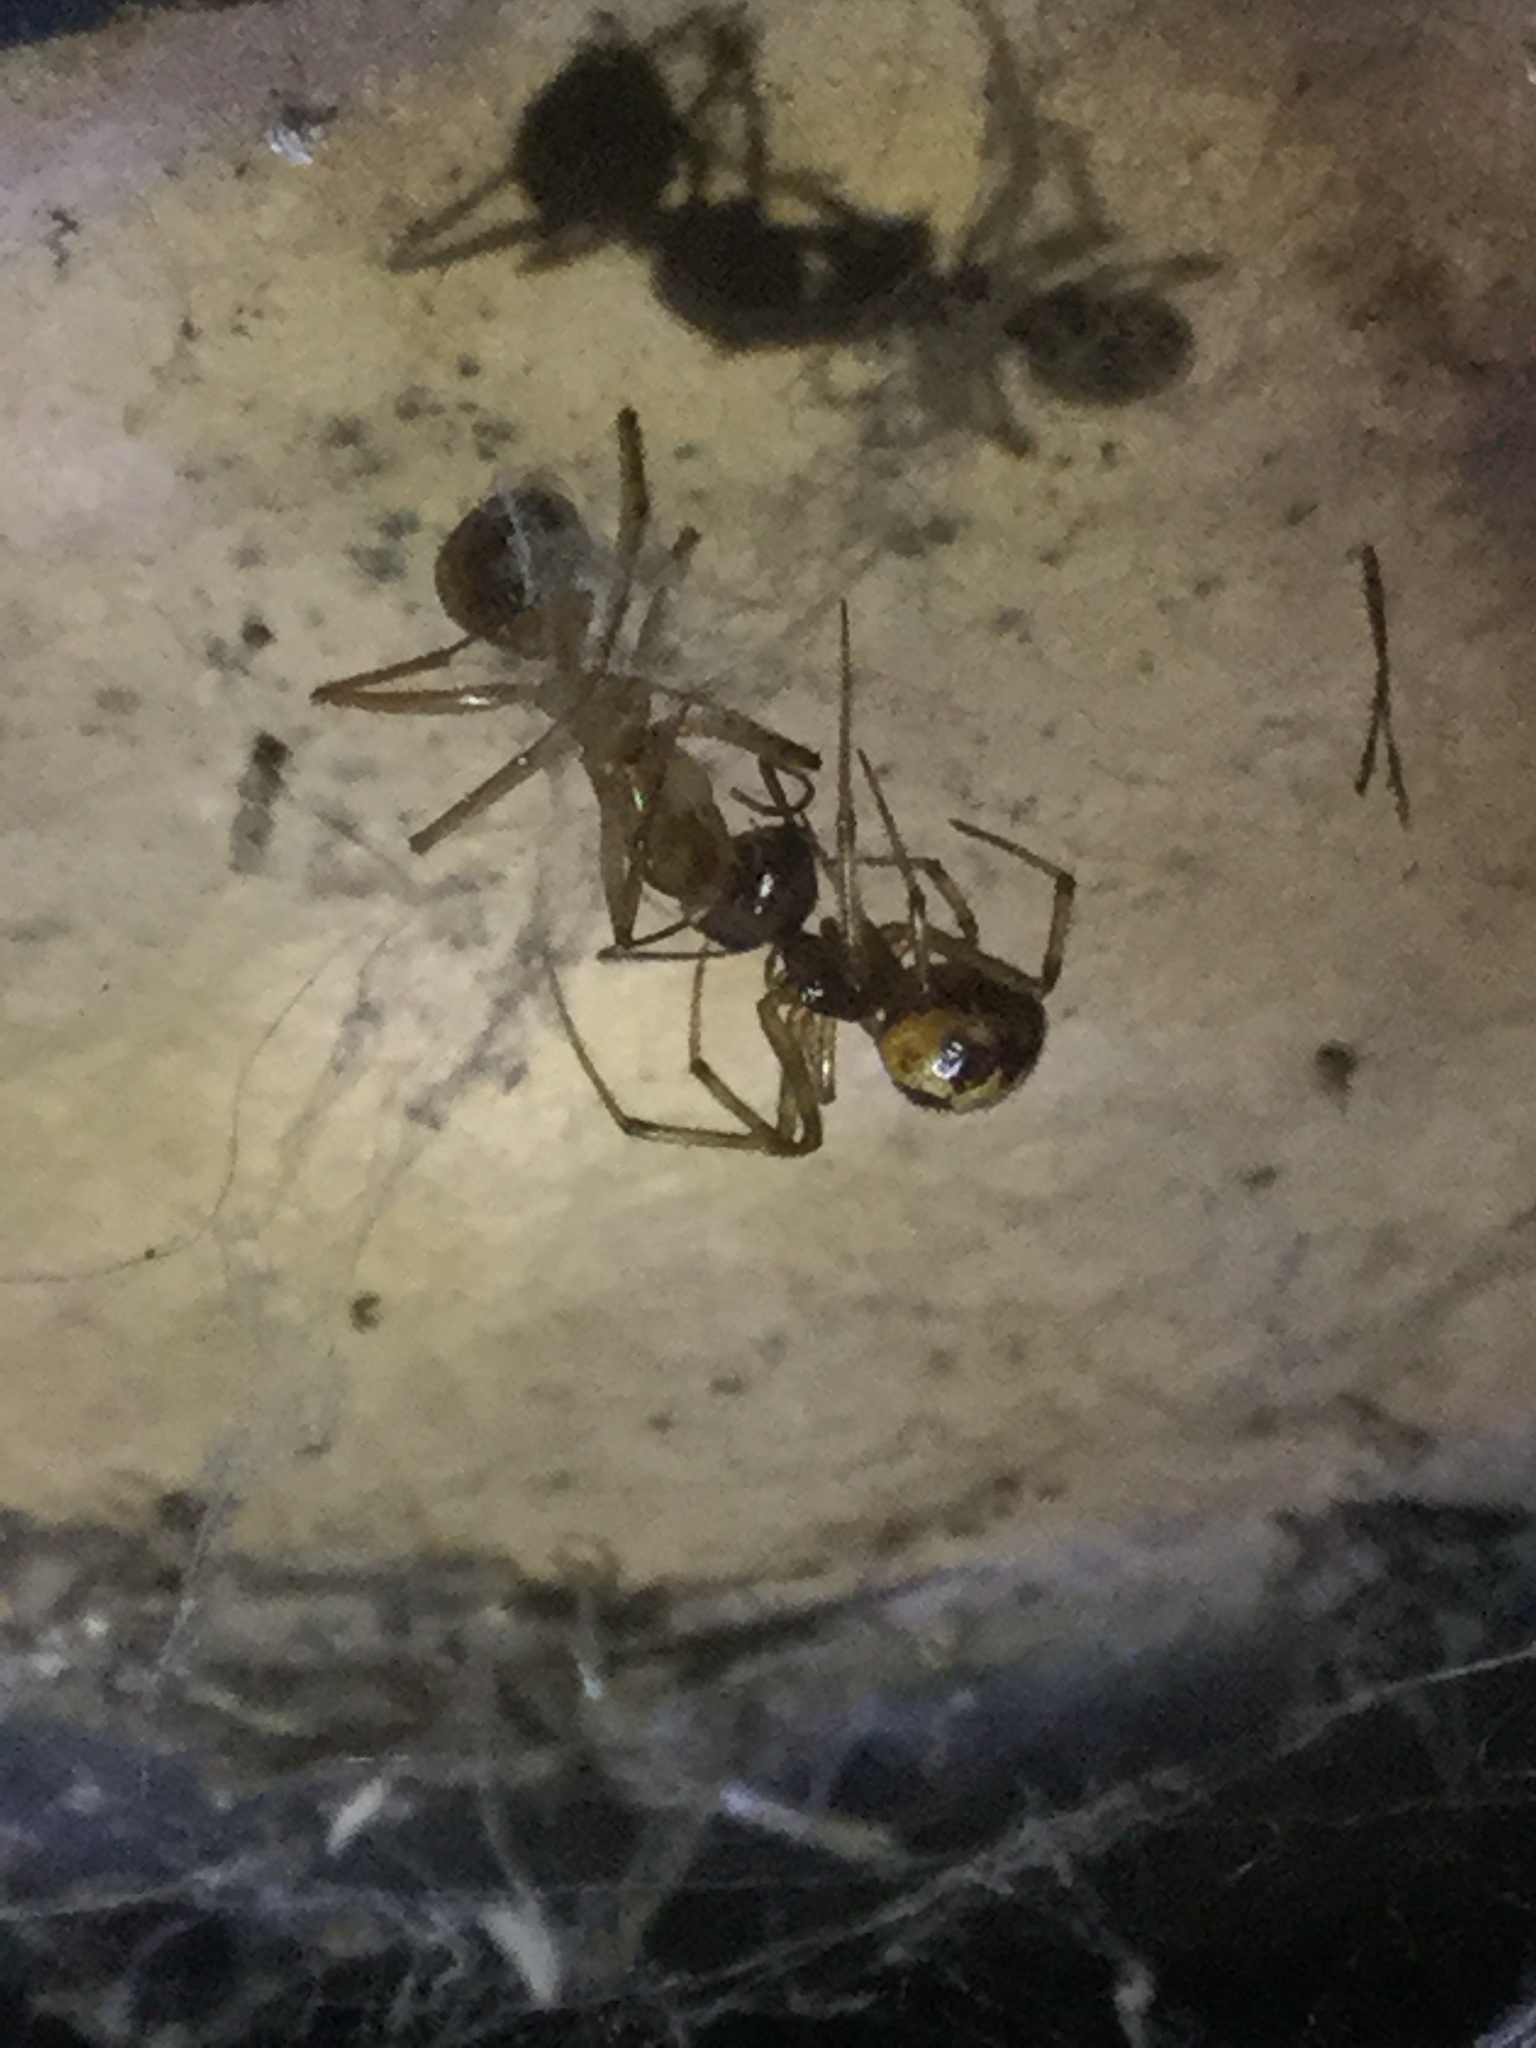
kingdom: Animalia
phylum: Arthropoda
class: Arachnida
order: Araneae
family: Theridiidae
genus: Steatoda
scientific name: Steatoda triangulosa
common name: Triangulate bud spider
